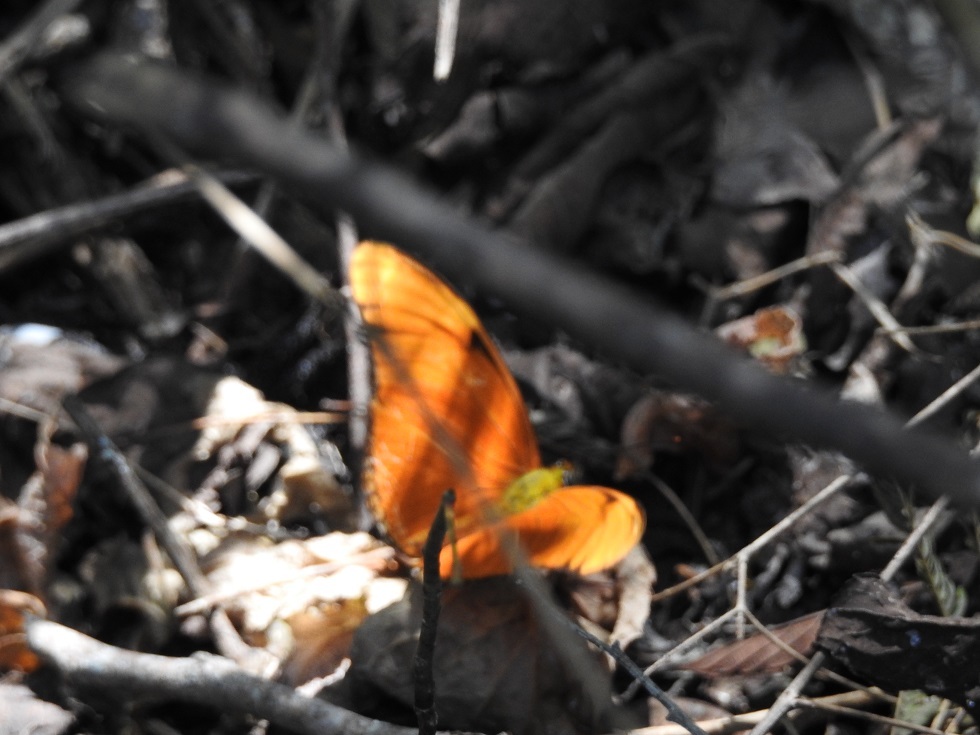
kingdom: Animalia
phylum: Arthropoda
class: Insecta
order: Lepidoptera
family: Nymphalidae
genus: Dryas
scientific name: Dryas iulia
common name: Flambeau
